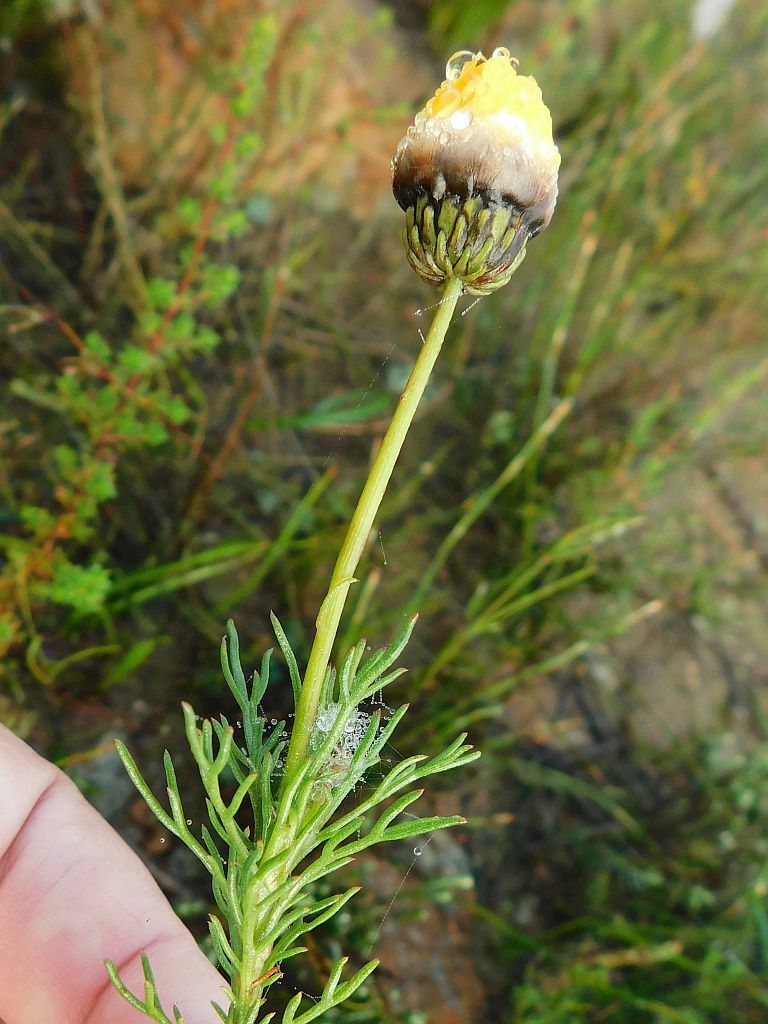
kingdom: Plantae
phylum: Tracheophyta
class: Magnoliopsida
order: Asterales
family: Asteraceae
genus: Ursinia
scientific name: Ursinia paleacea
